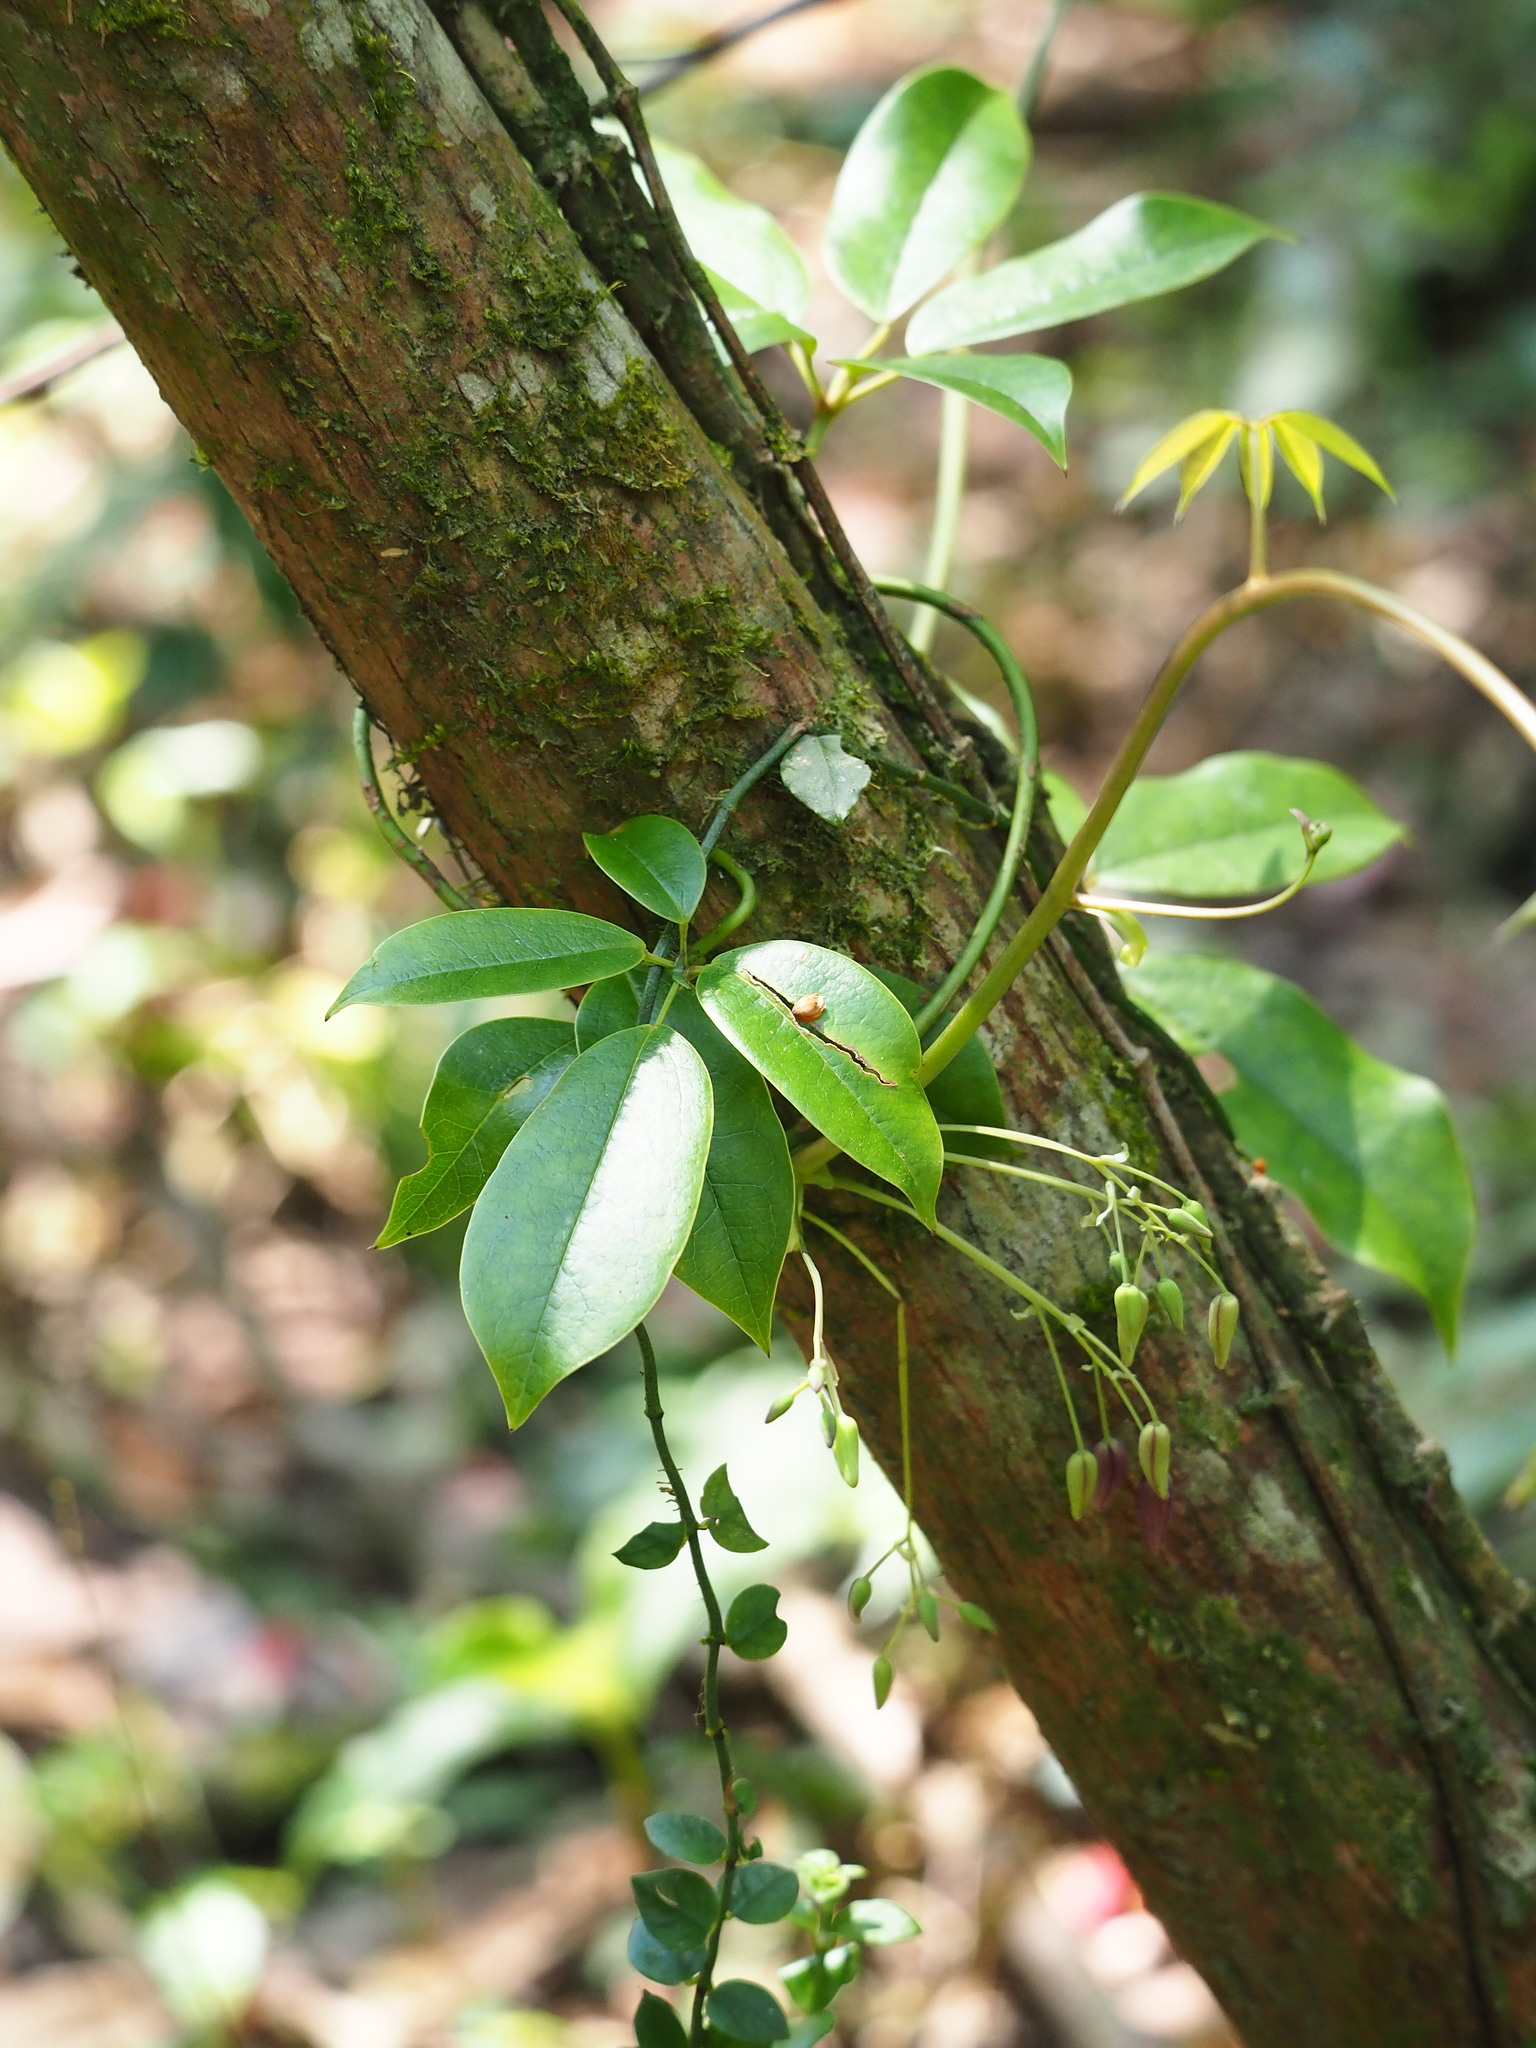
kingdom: Plantae
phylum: Tracheophyta
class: Magnoliopsida
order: Ranunculales
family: Lardizabalaceae
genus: Stauntonia
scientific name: Stauntonia obovatifoliola
